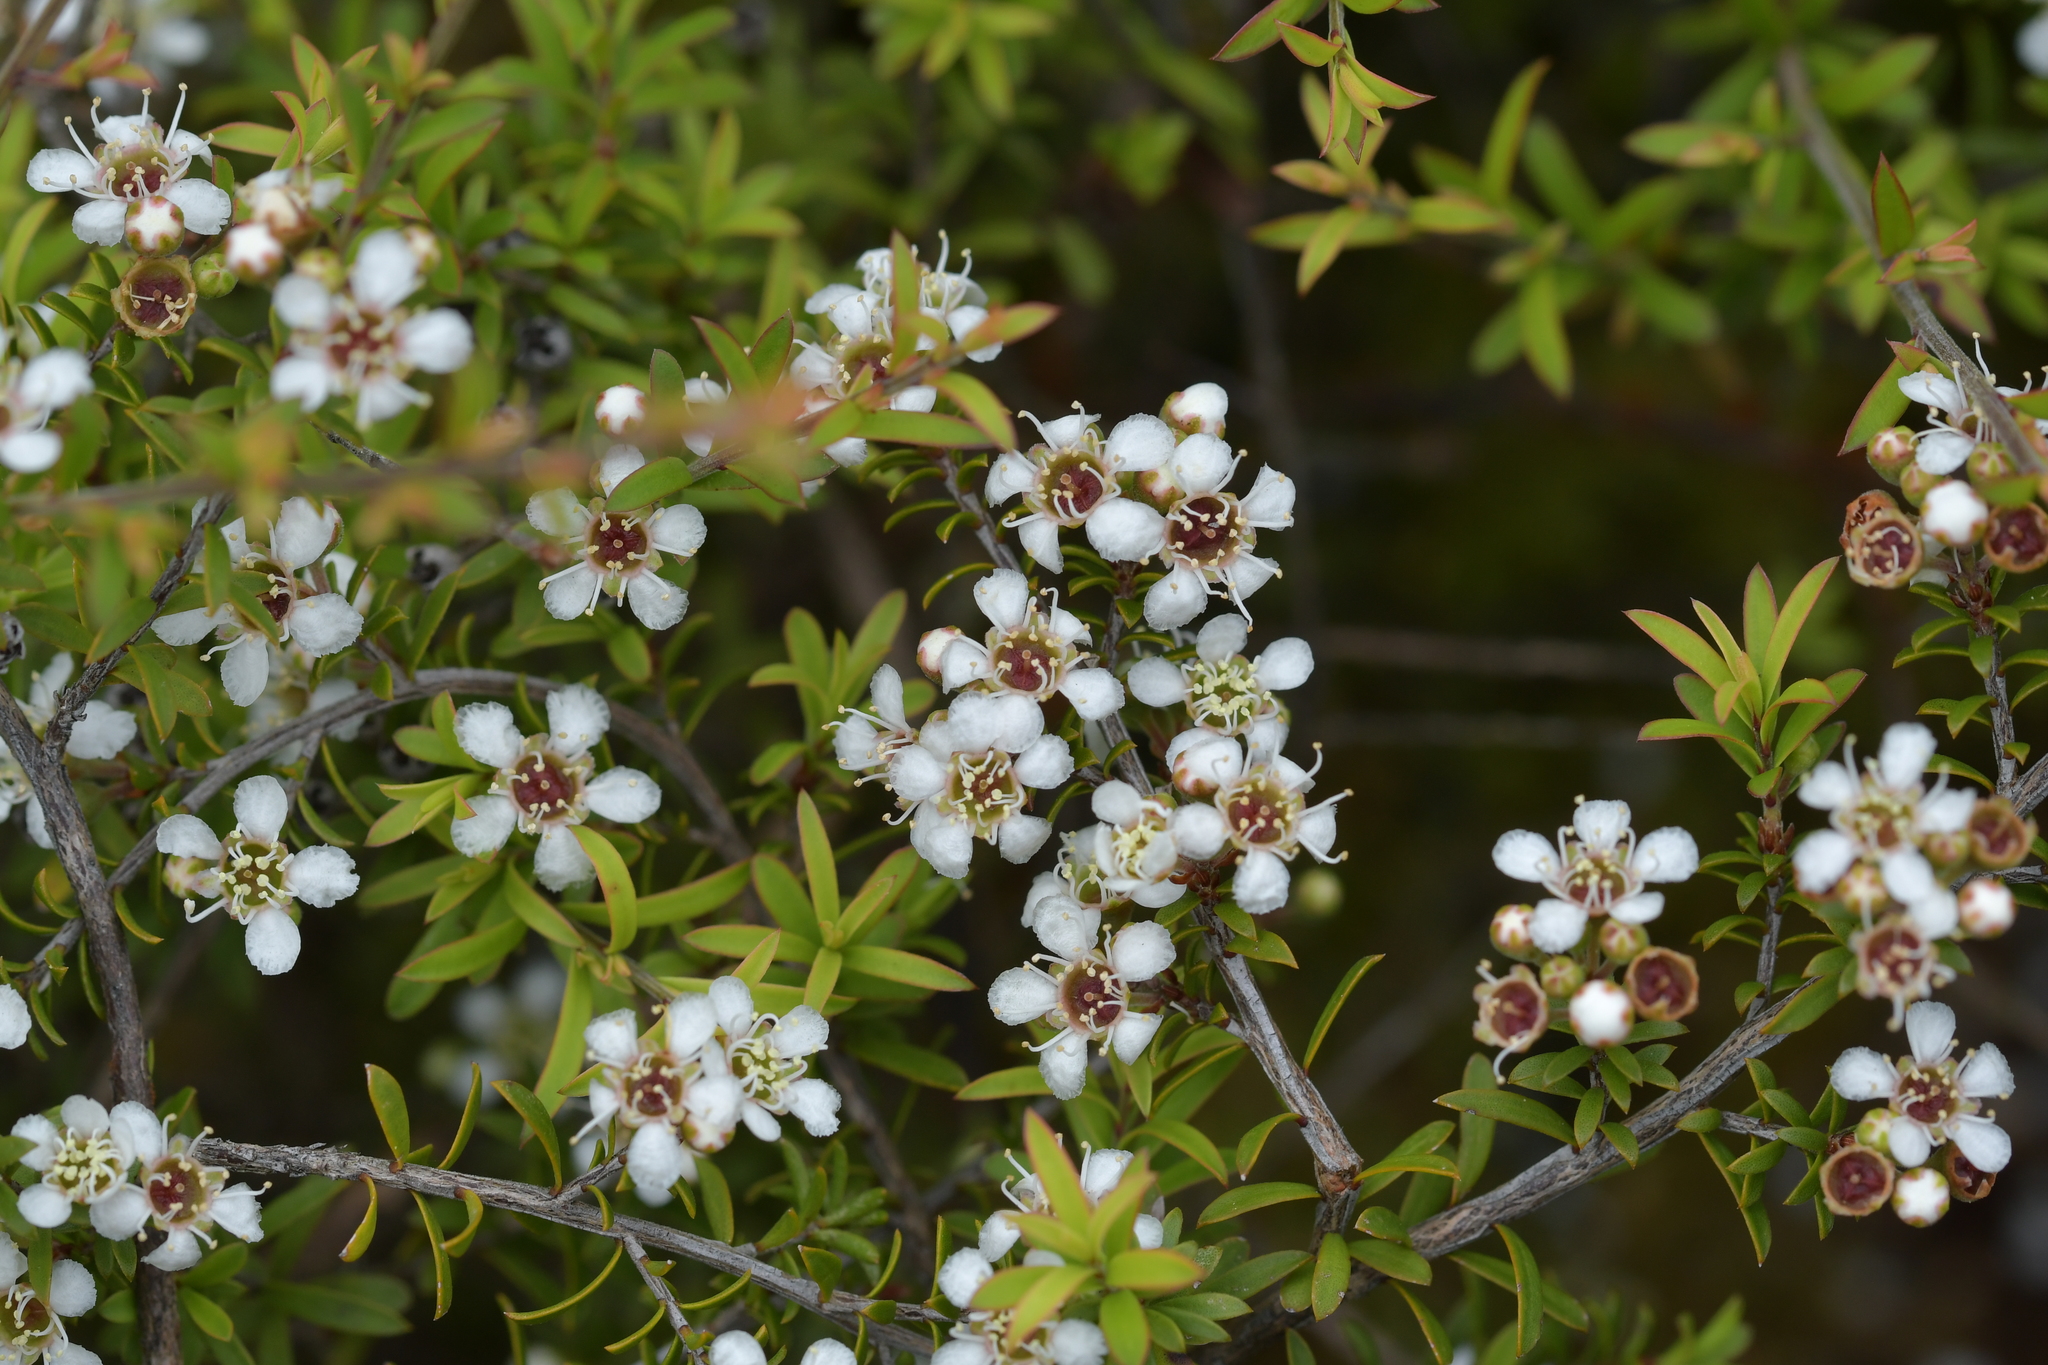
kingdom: Plantae
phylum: Tracheophyta
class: Magnoliopsida
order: Myrtales
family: Myrtaceae
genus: Kunzea
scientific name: Kunzea tenuicaulis
